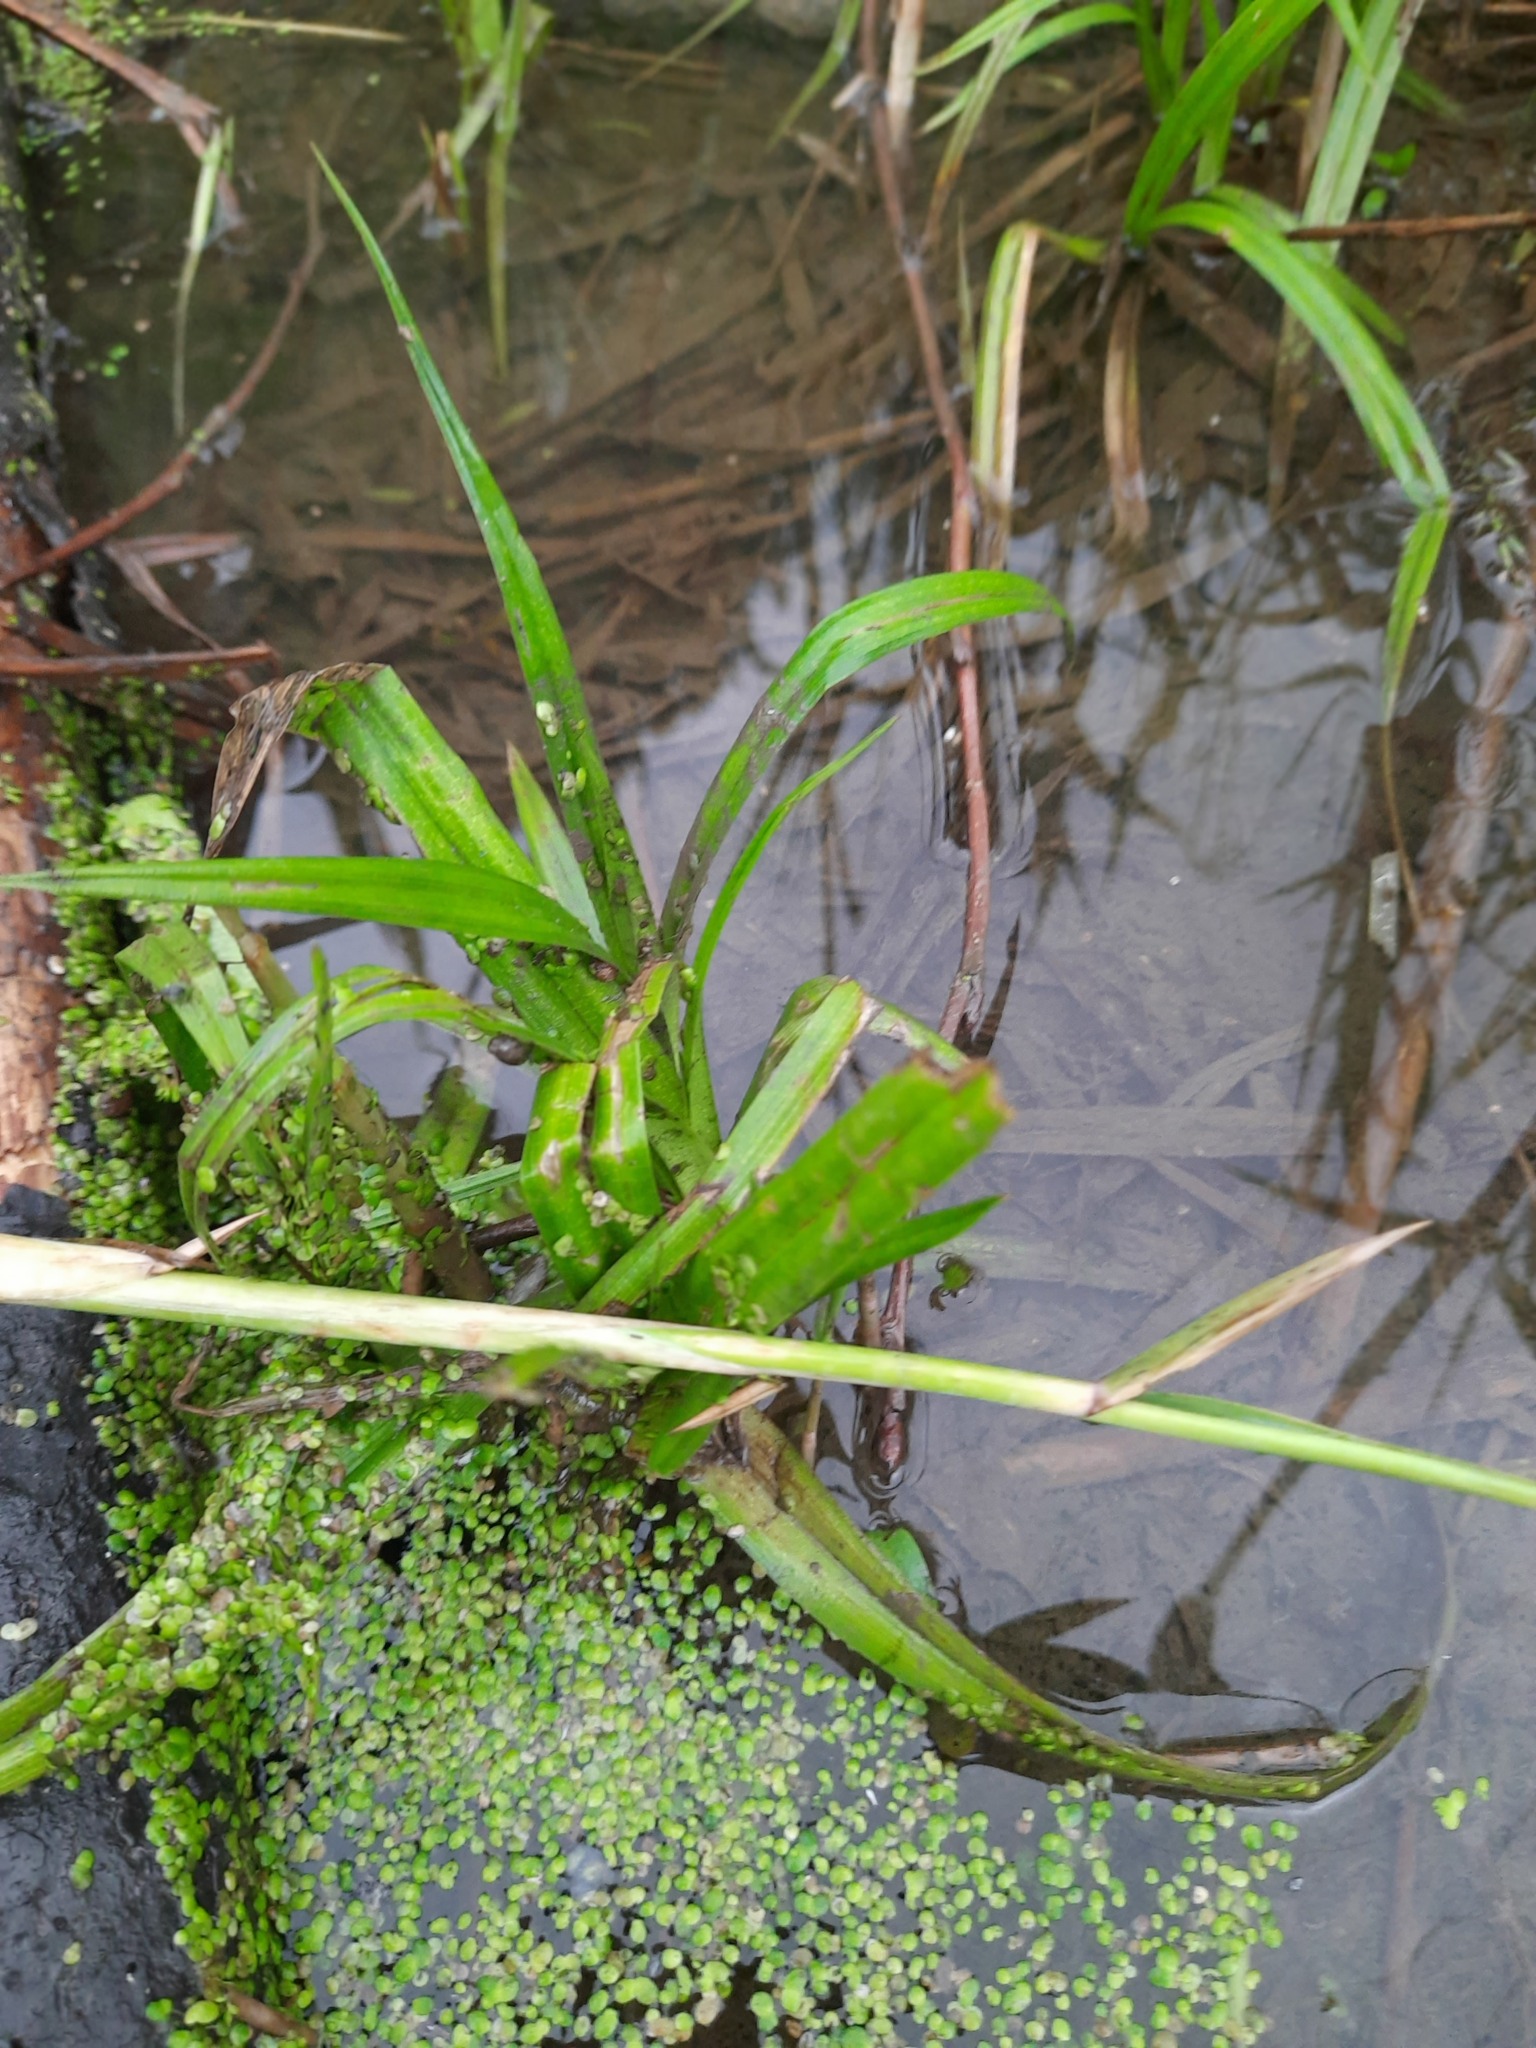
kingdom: Plantae
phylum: Tracheophyta
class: Liliopsida
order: Poales
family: Cyperaceae
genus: Scirpus
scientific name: Scirpus sylvaticus
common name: Wood club-rush
